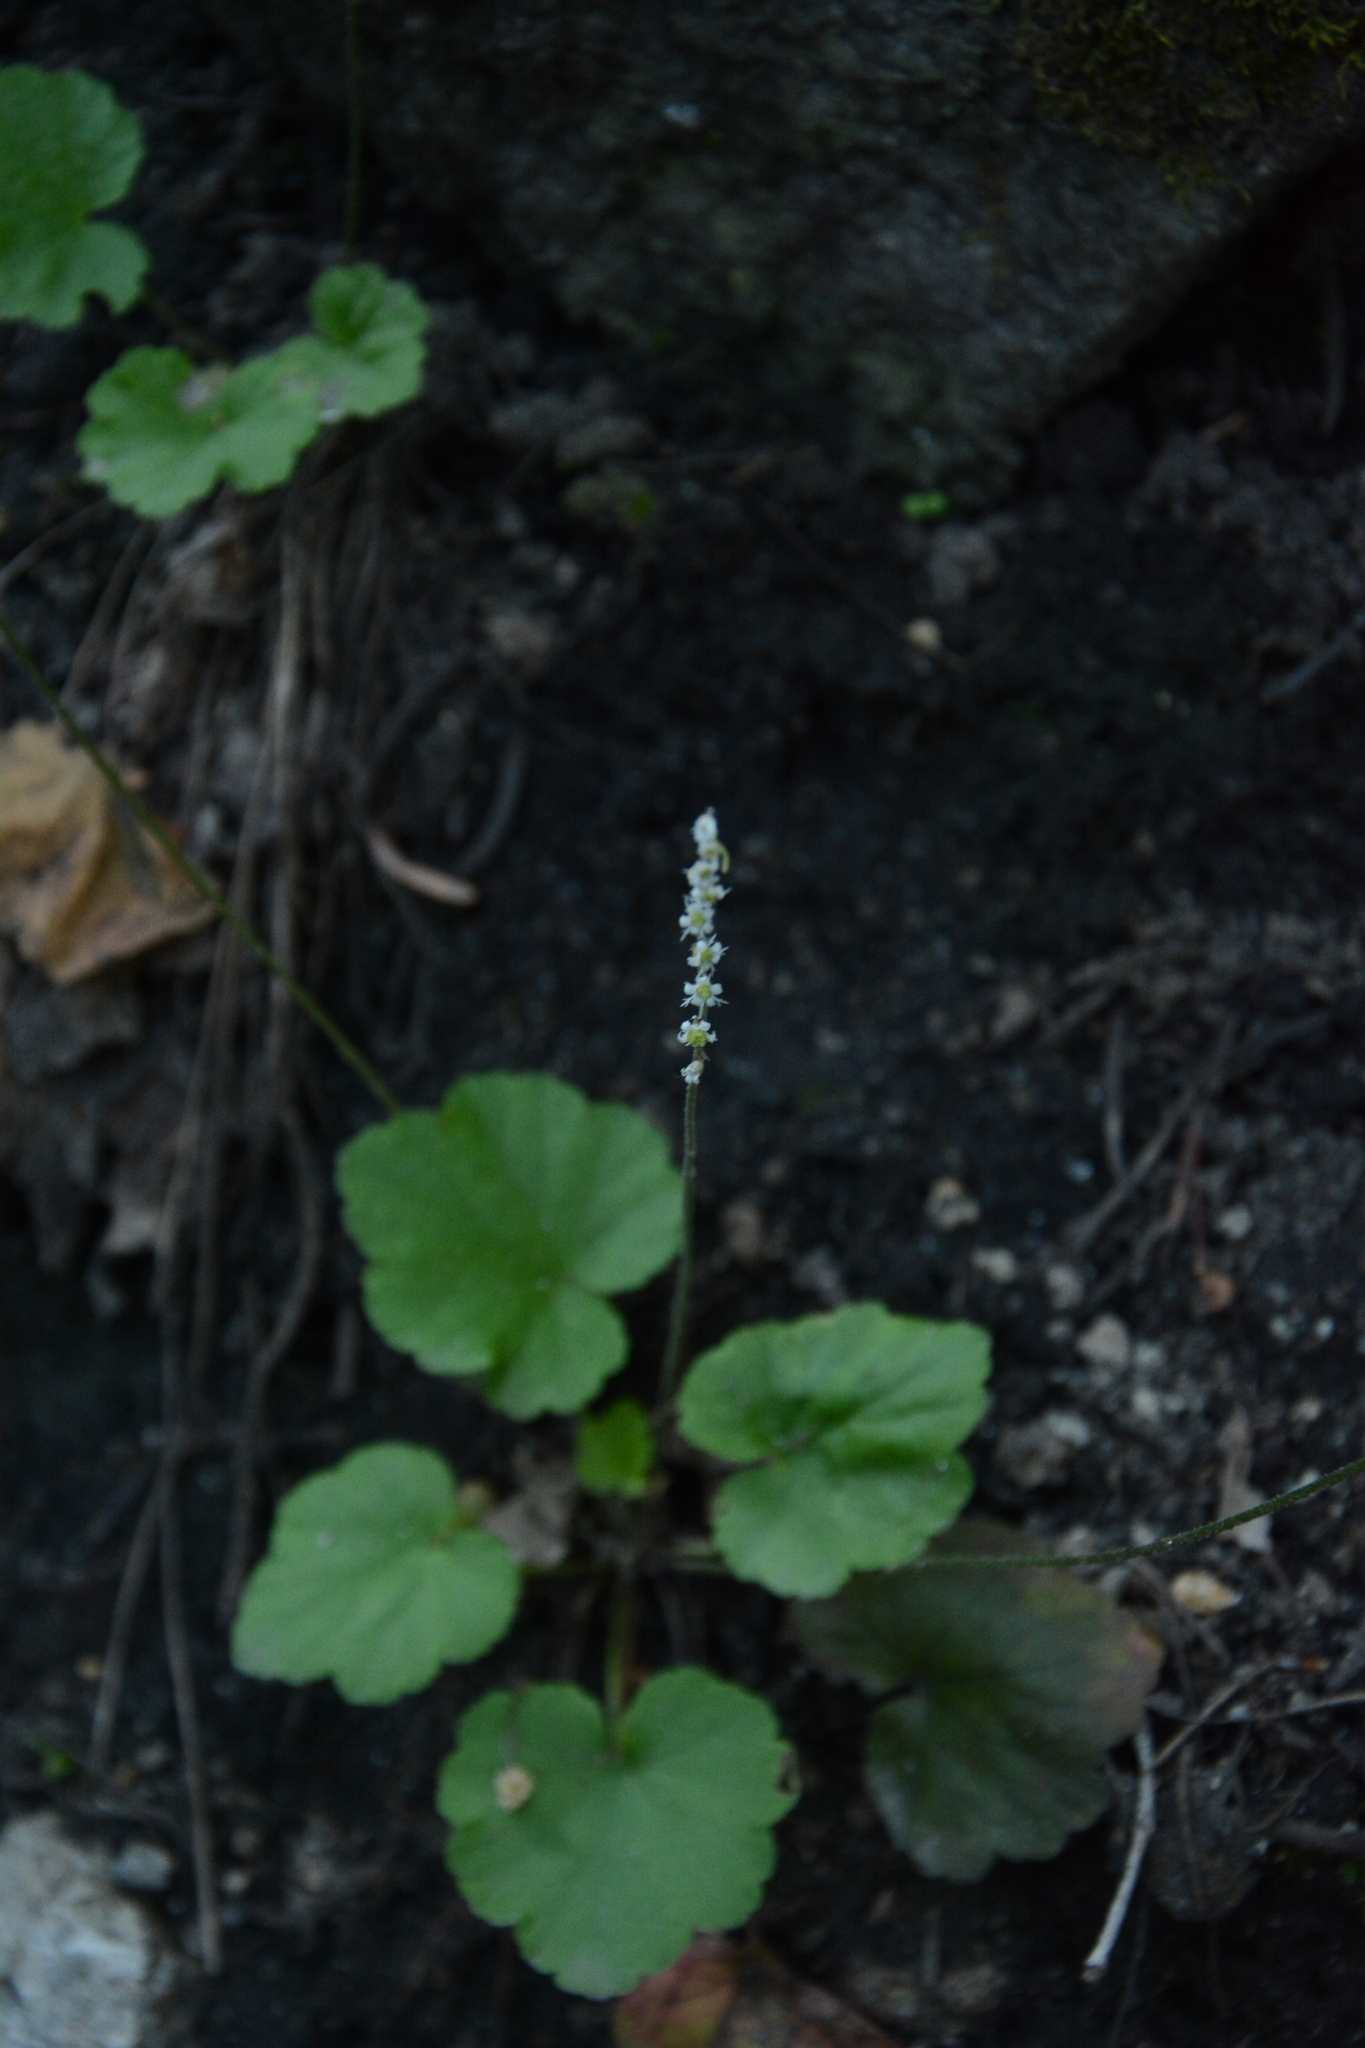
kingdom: Plantae
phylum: Tracheophyta
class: Magnoliopsida
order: Saxifragales
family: Saxifragaceae
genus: Ozomelis
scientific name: Ozomelis stauropetala
